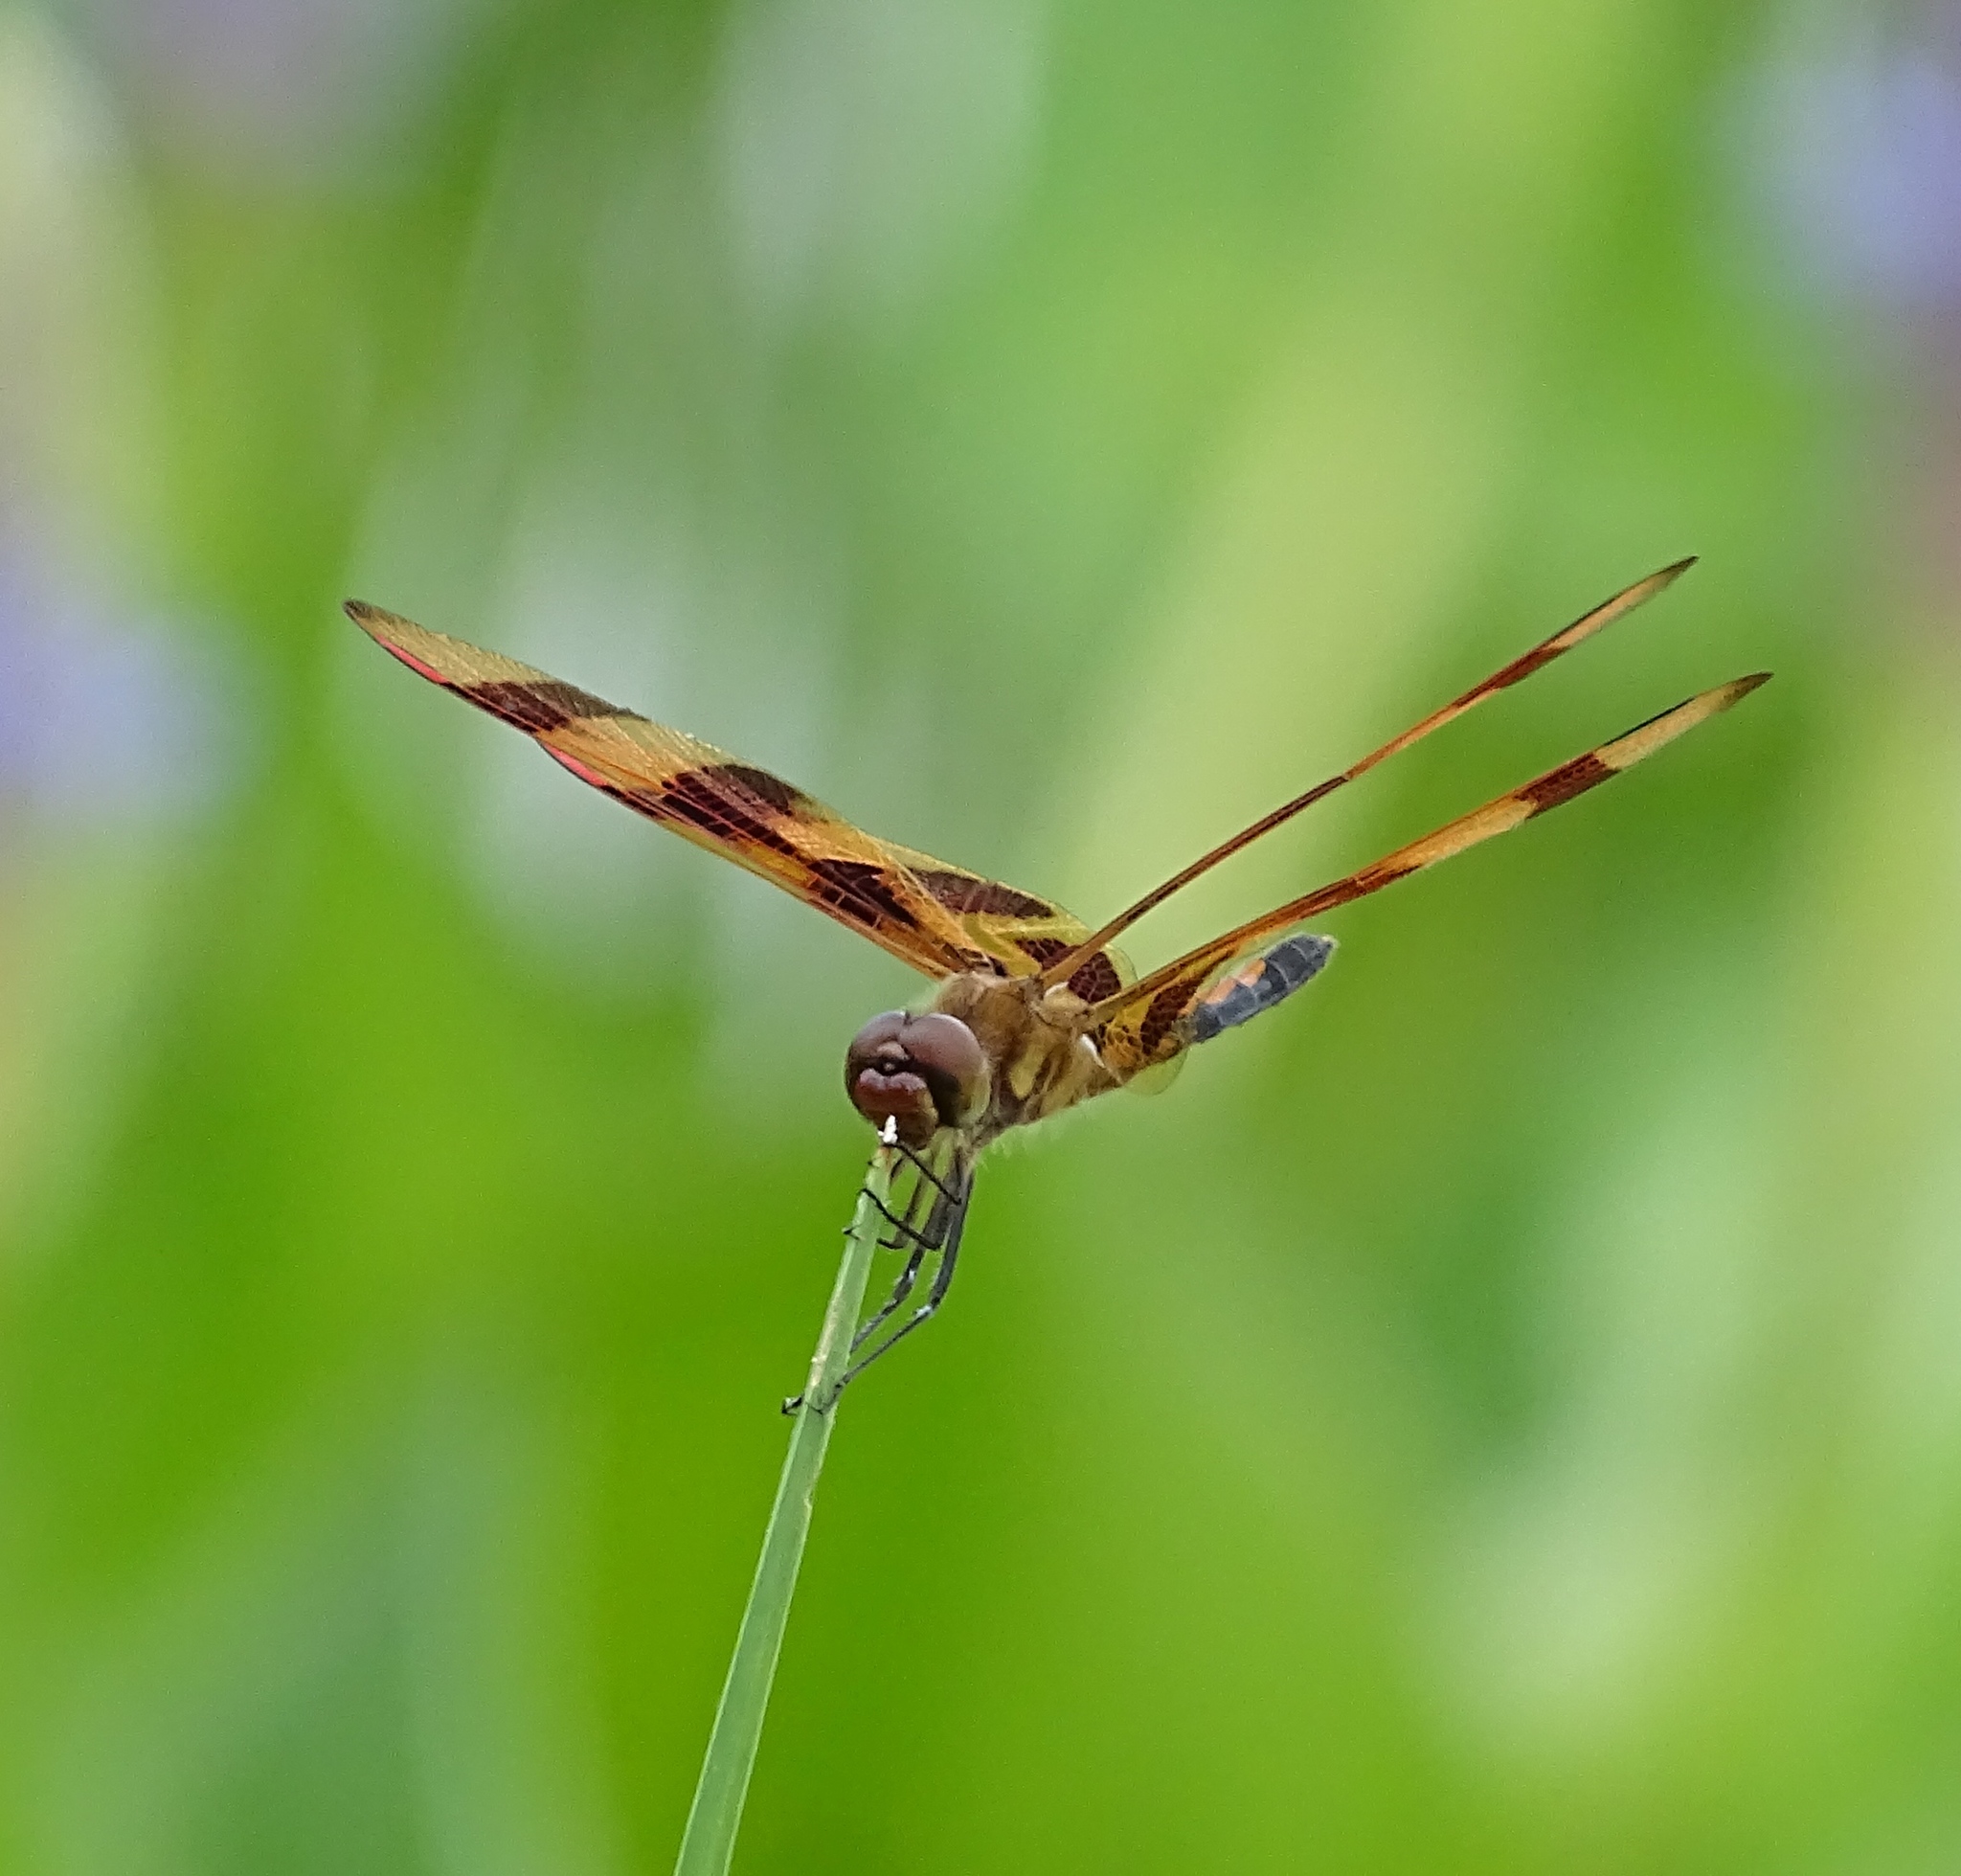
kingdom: Animalia
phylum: Arthropoda
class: Insecta
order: Odonata
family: Libellulidae
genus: Celithemis
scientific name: Celithemis eponina
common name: Halloween pennant
